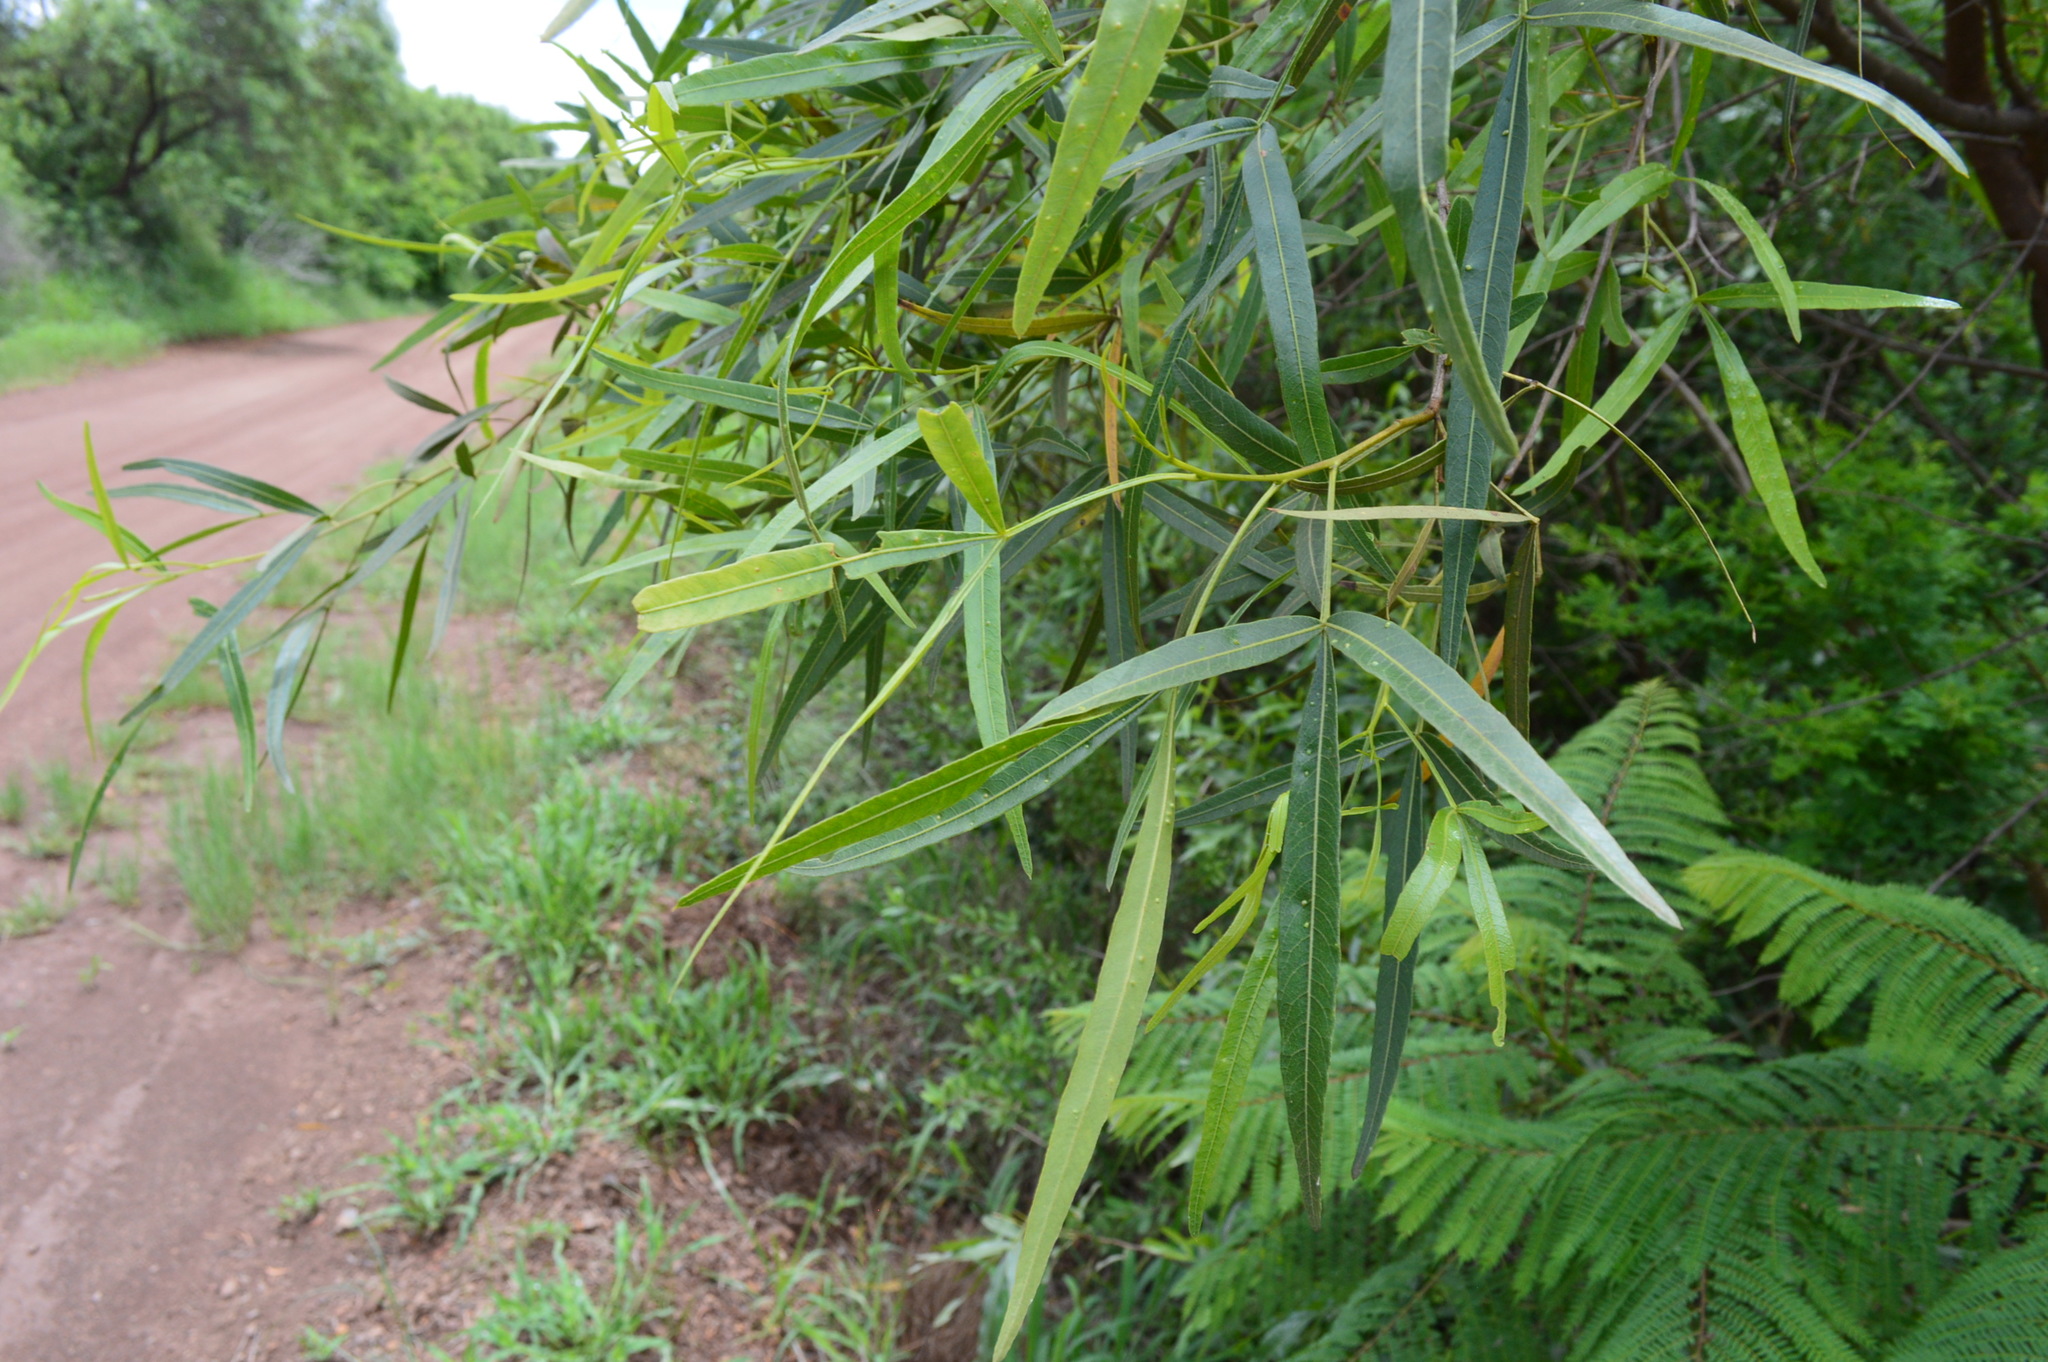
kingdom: Plantae
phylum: Tracheophyta
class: Magnoliopsida
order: Sapindales
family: Anacardiaceae
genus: Searsia
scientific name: Searsia lancea
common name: Cashew
